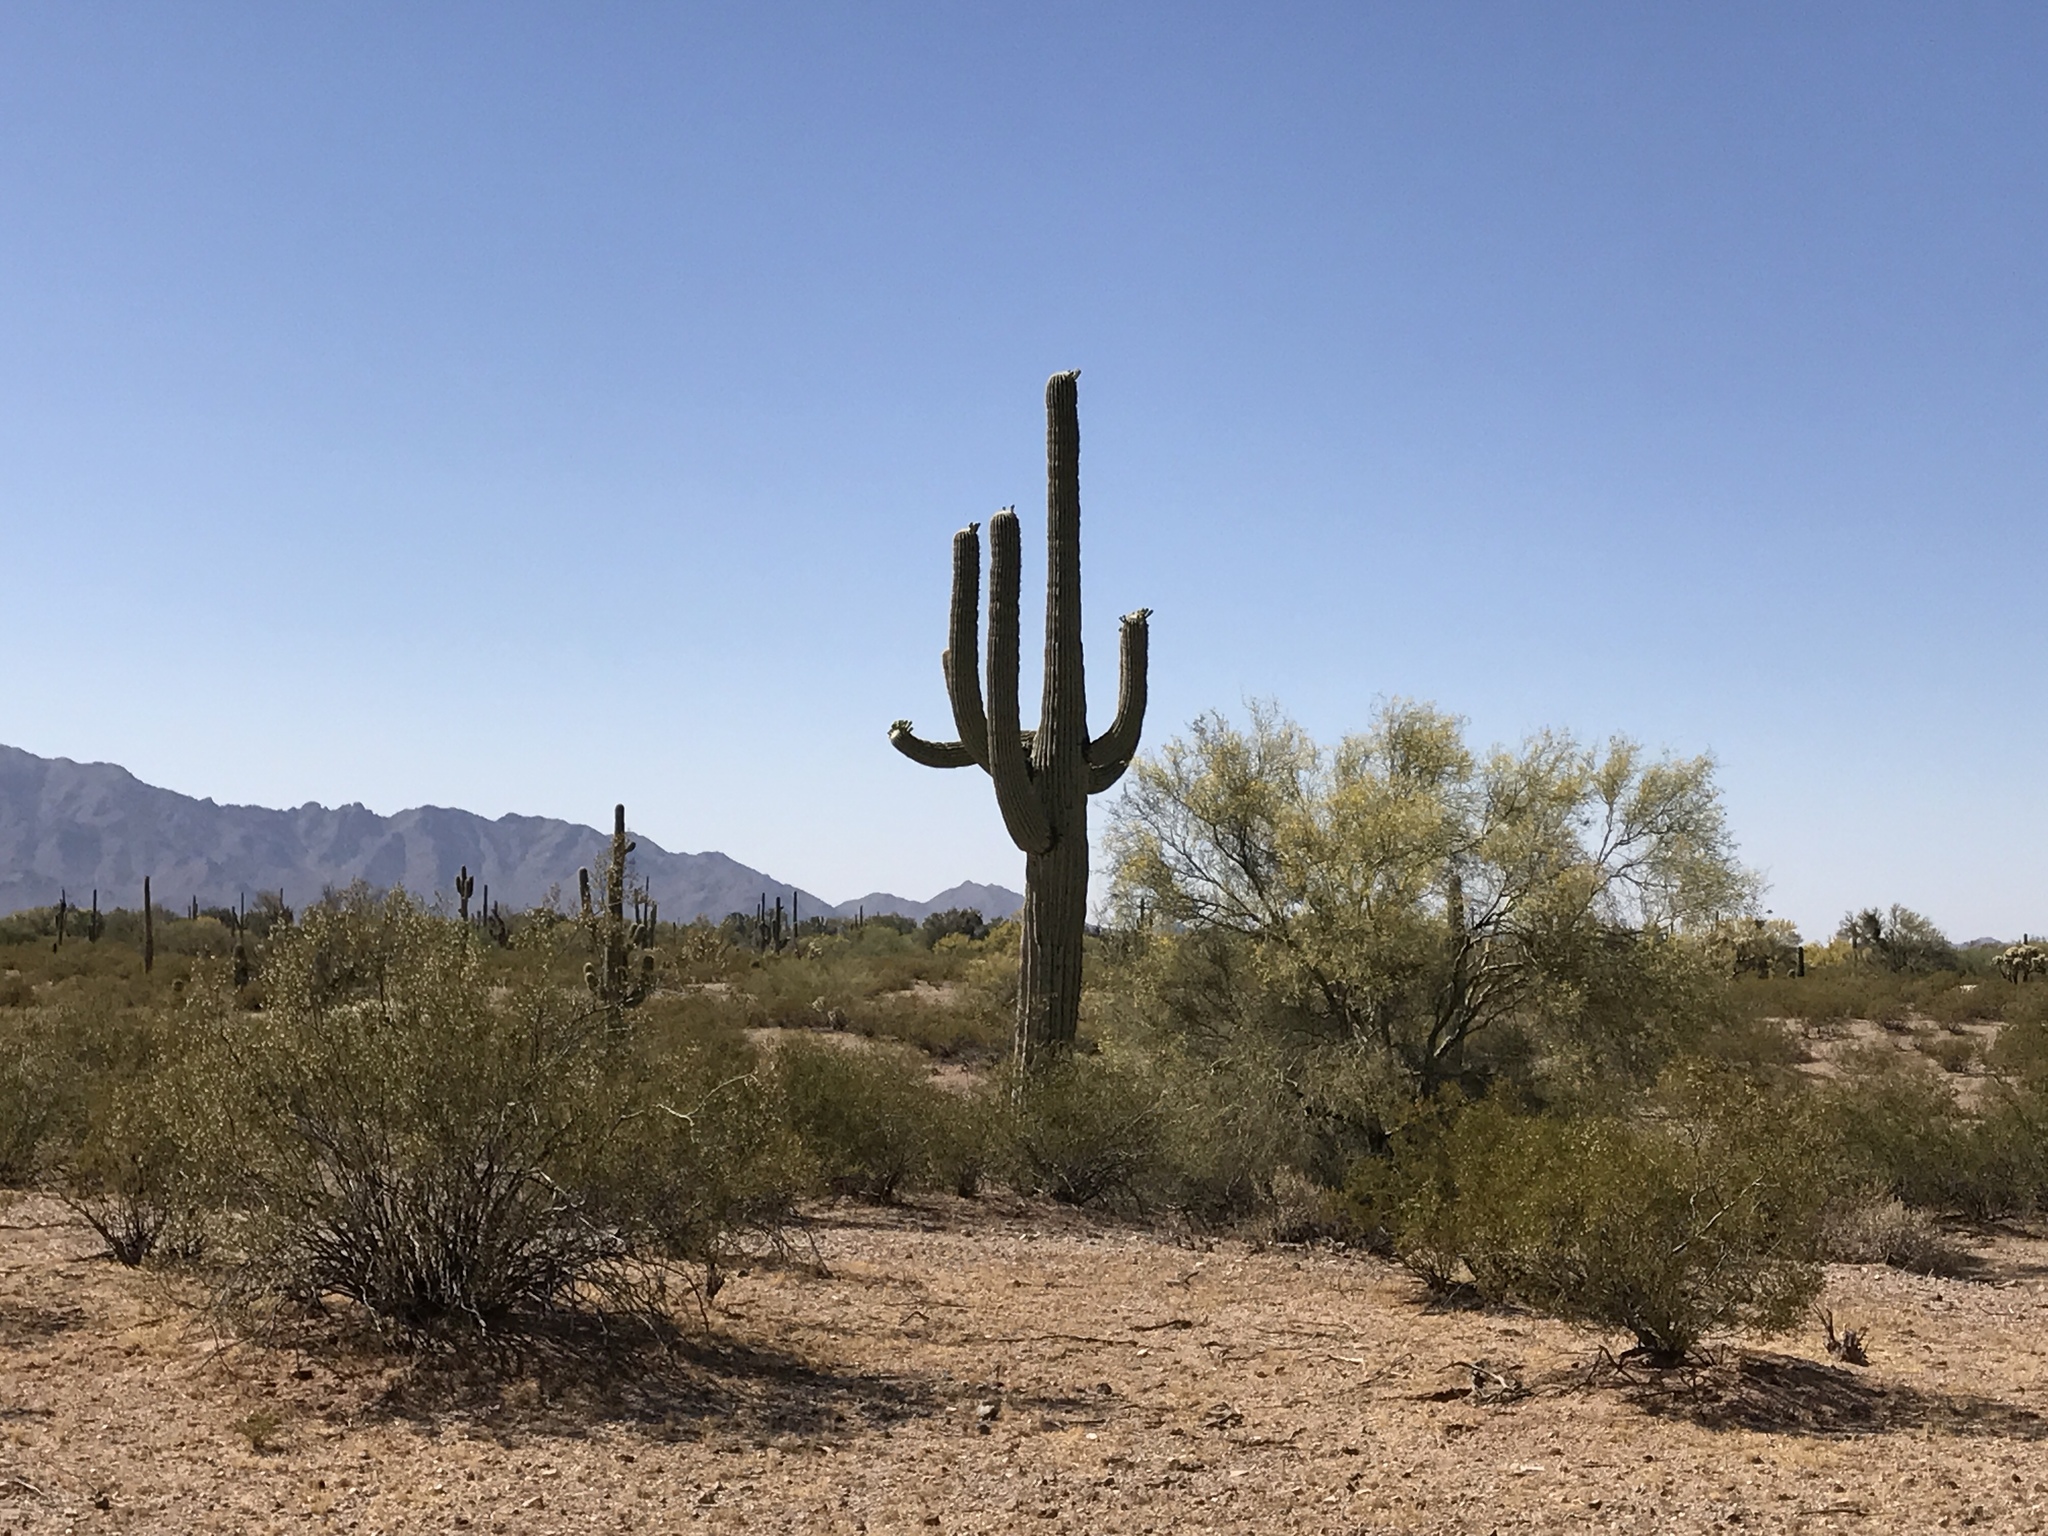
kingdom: Plantae
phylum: Tracheophyta
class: Magnoliopsida
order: Caryophyllales
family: Cactaceae
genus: Carnegiea
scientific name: Carnegiea gigantea
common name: Saguaro
